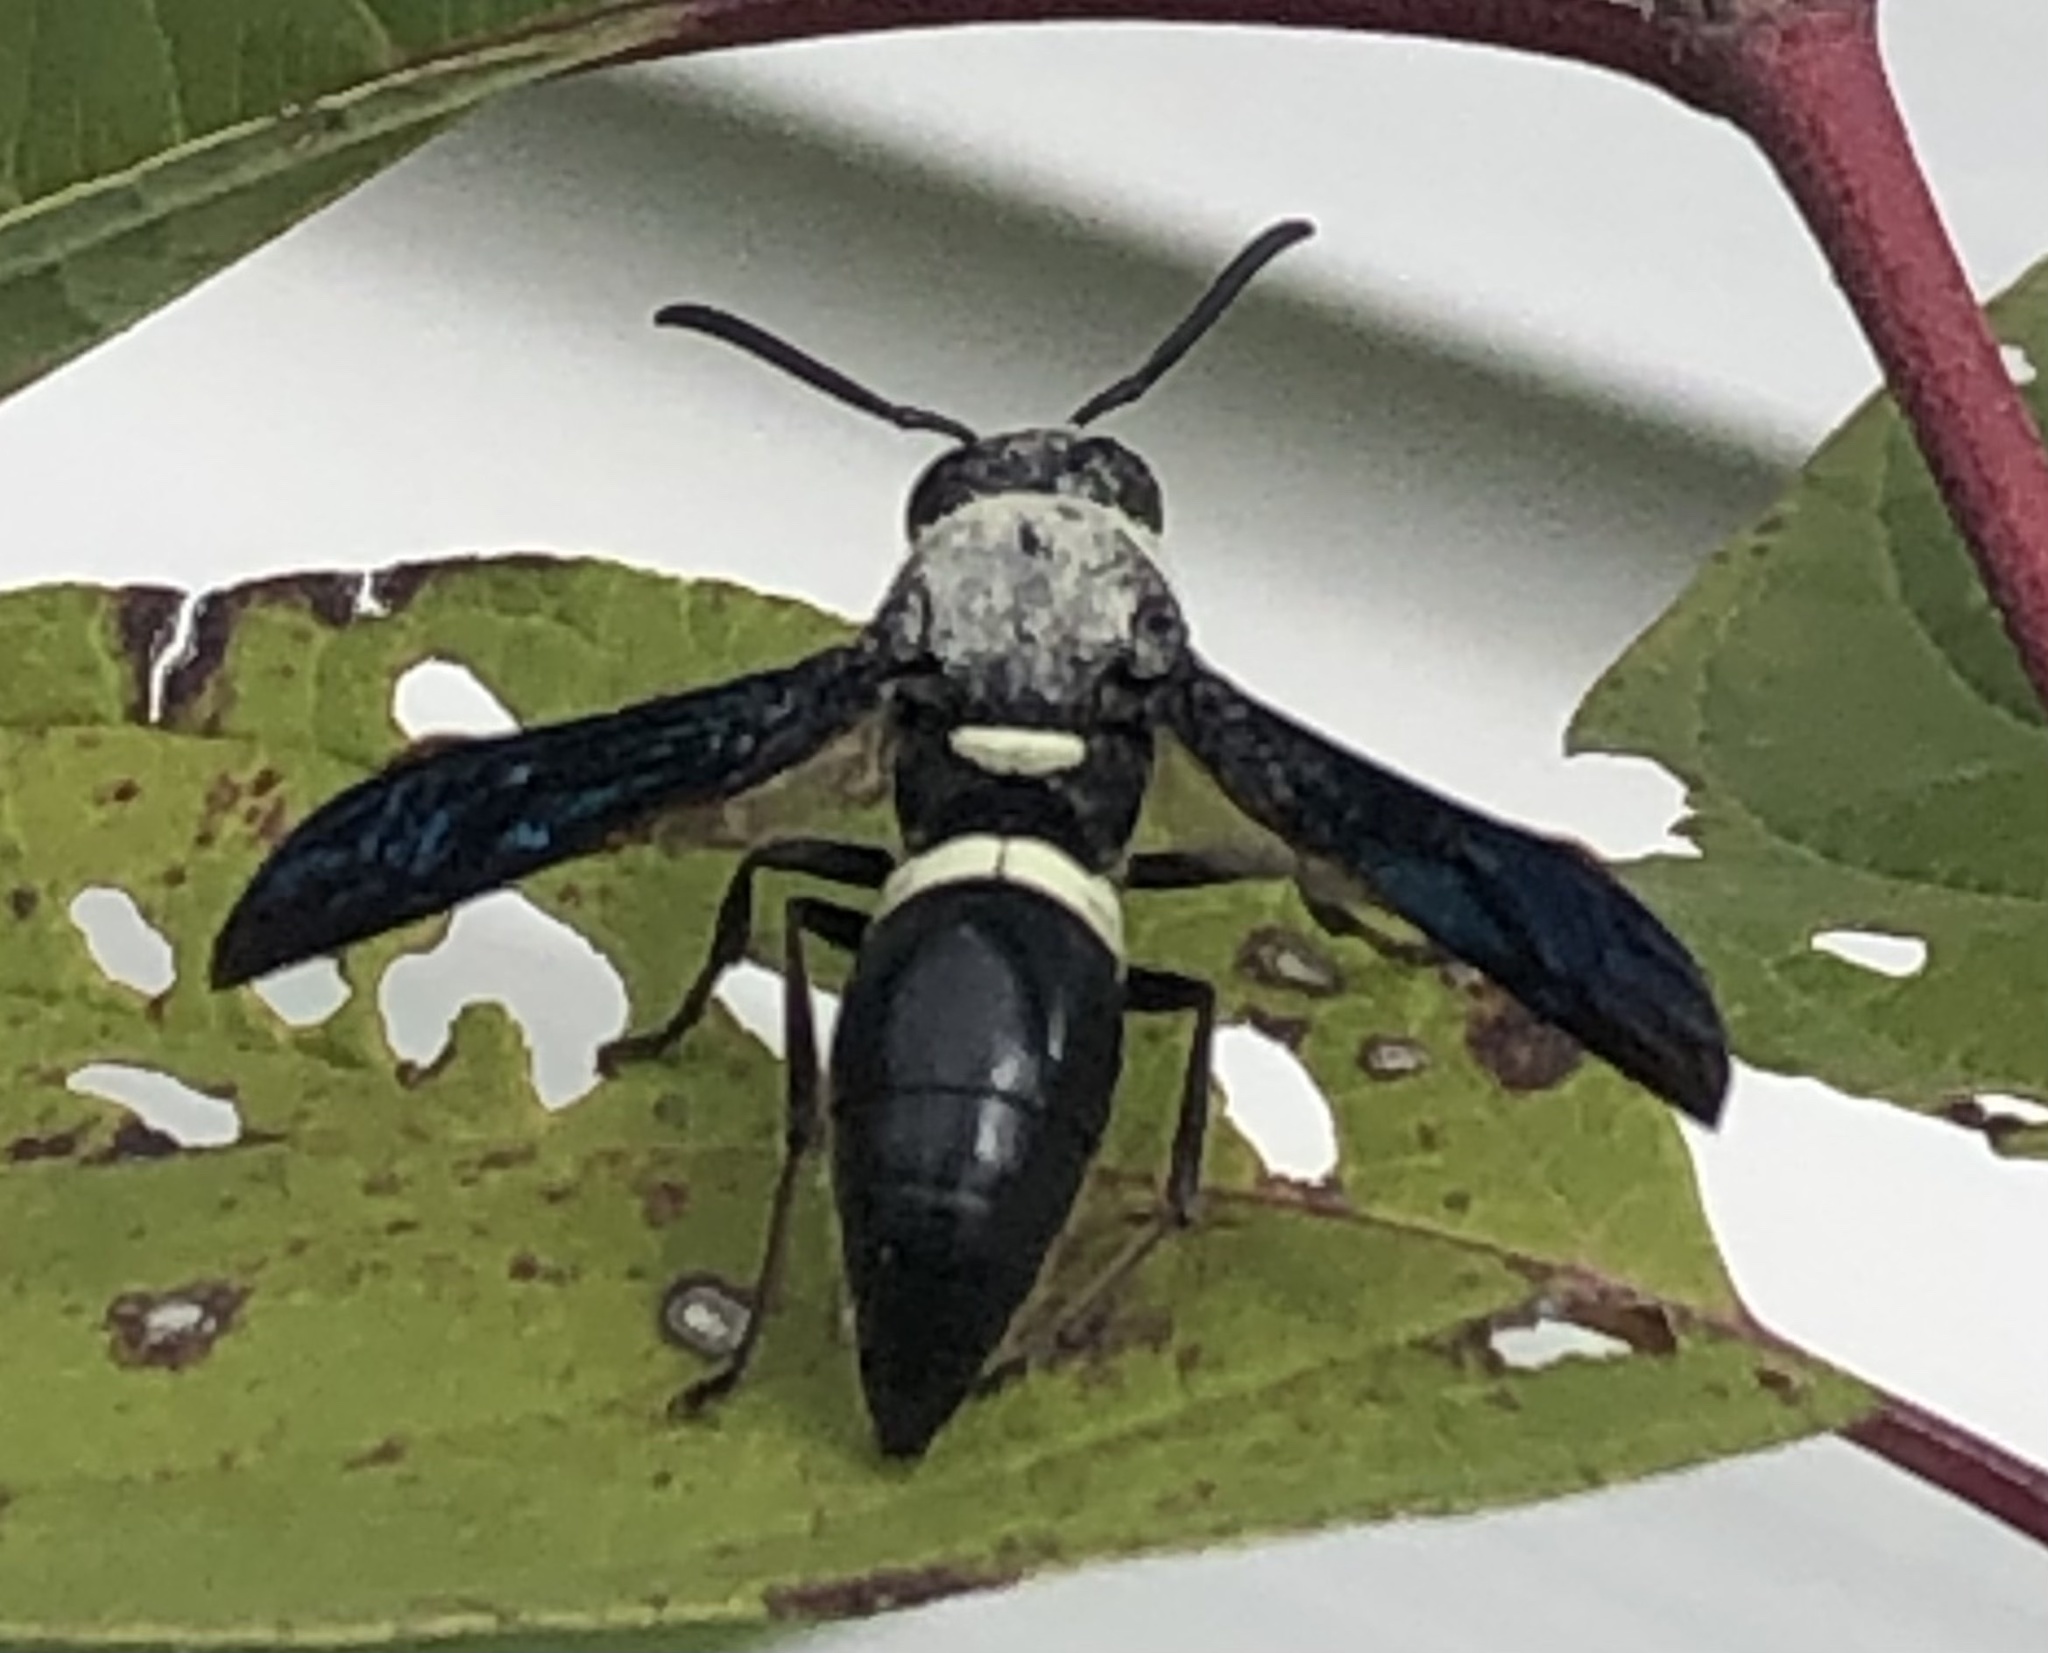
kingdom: Animalia
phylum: Arthropoda
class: Insecta
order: Hymenoptera
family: Eumenidae
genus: Monobia
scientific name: Monobia quadridens
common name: Four-toothed mason wasp
